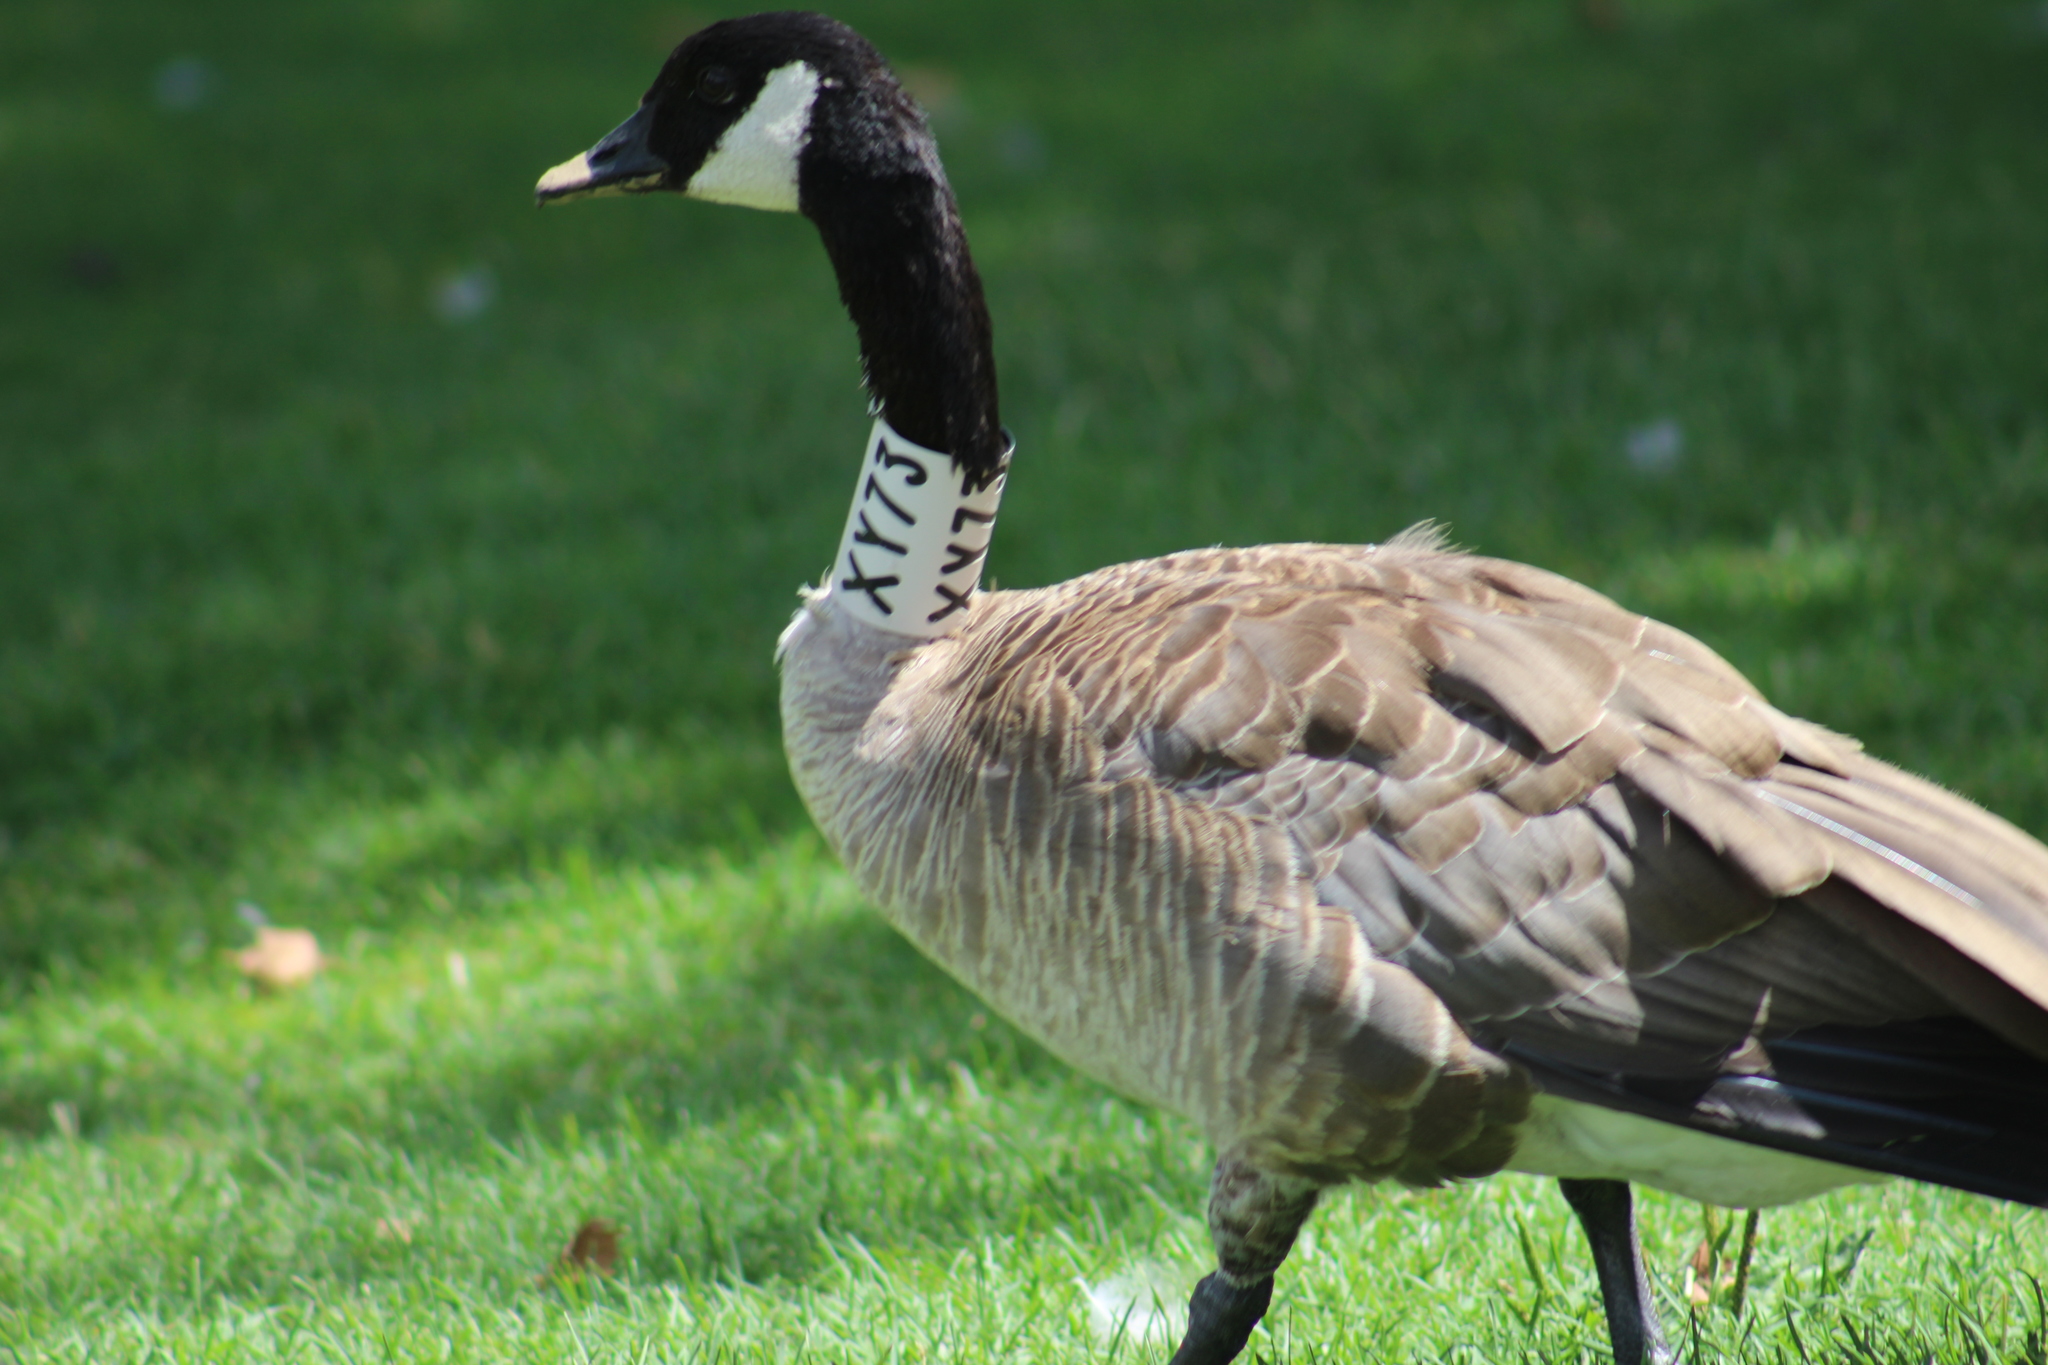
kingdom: Animalia
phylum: Chordata
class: Aves
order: Anseriformes
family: Anatidae
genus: Branta
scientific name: Branta canadensis
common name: Canada goose
